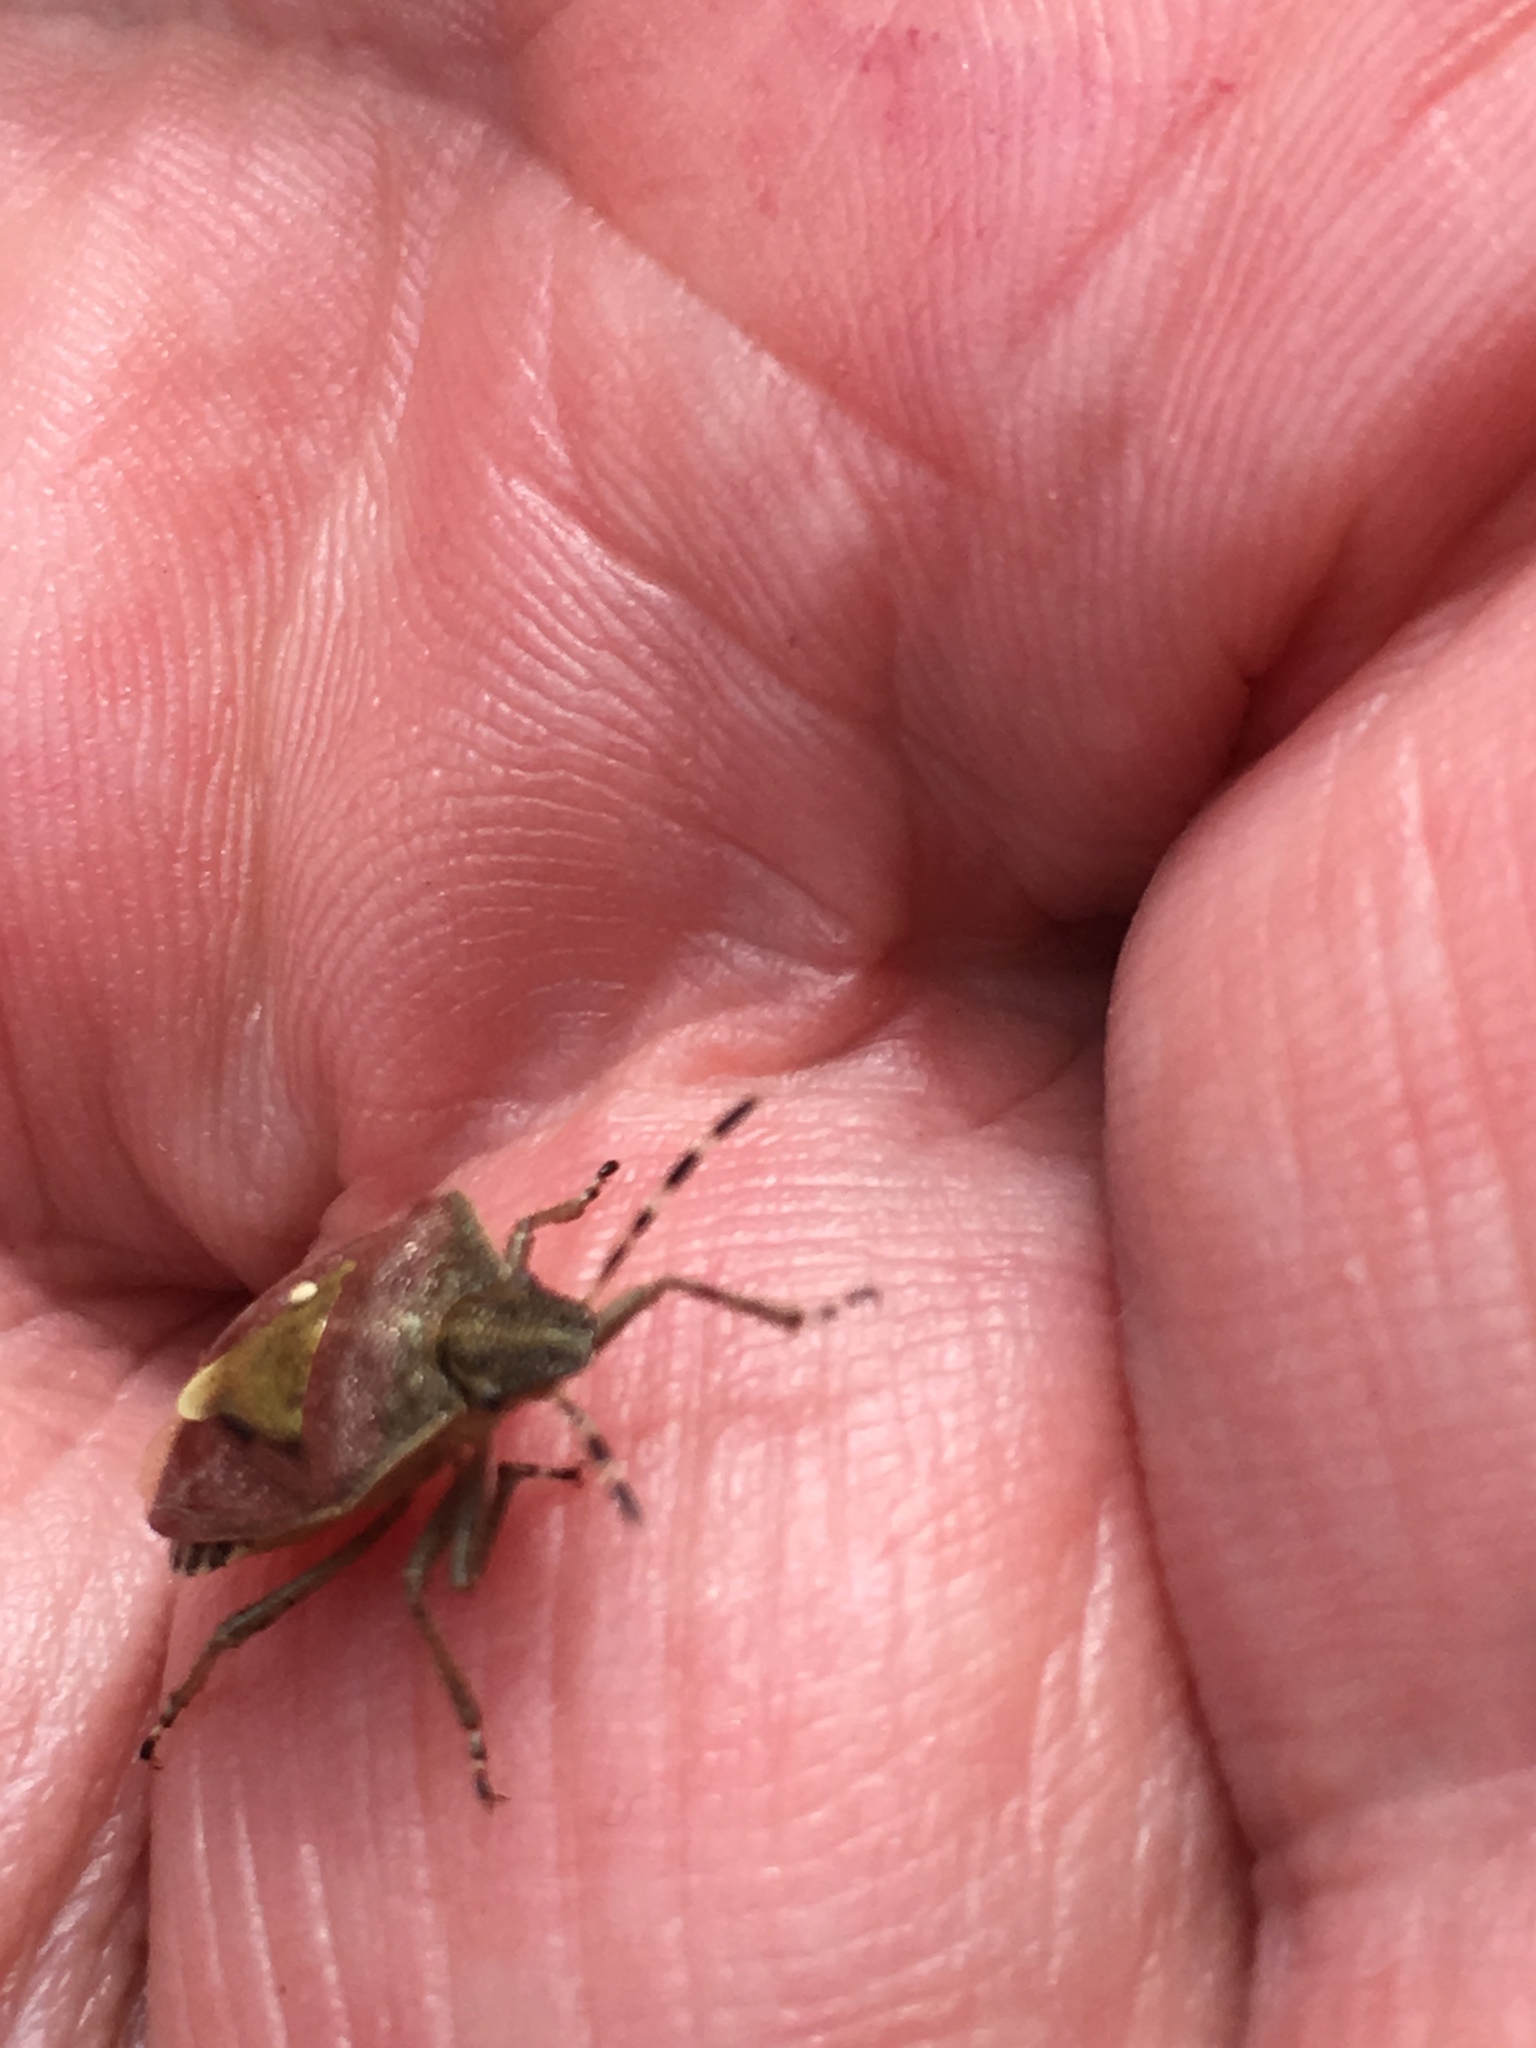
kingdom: Animalia
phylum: Arthropoda
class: Insecta
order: Hemiptera
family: Pentatomidae
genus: Dolycoris
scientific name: Dolycoris baccarum
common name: Sloe bug
